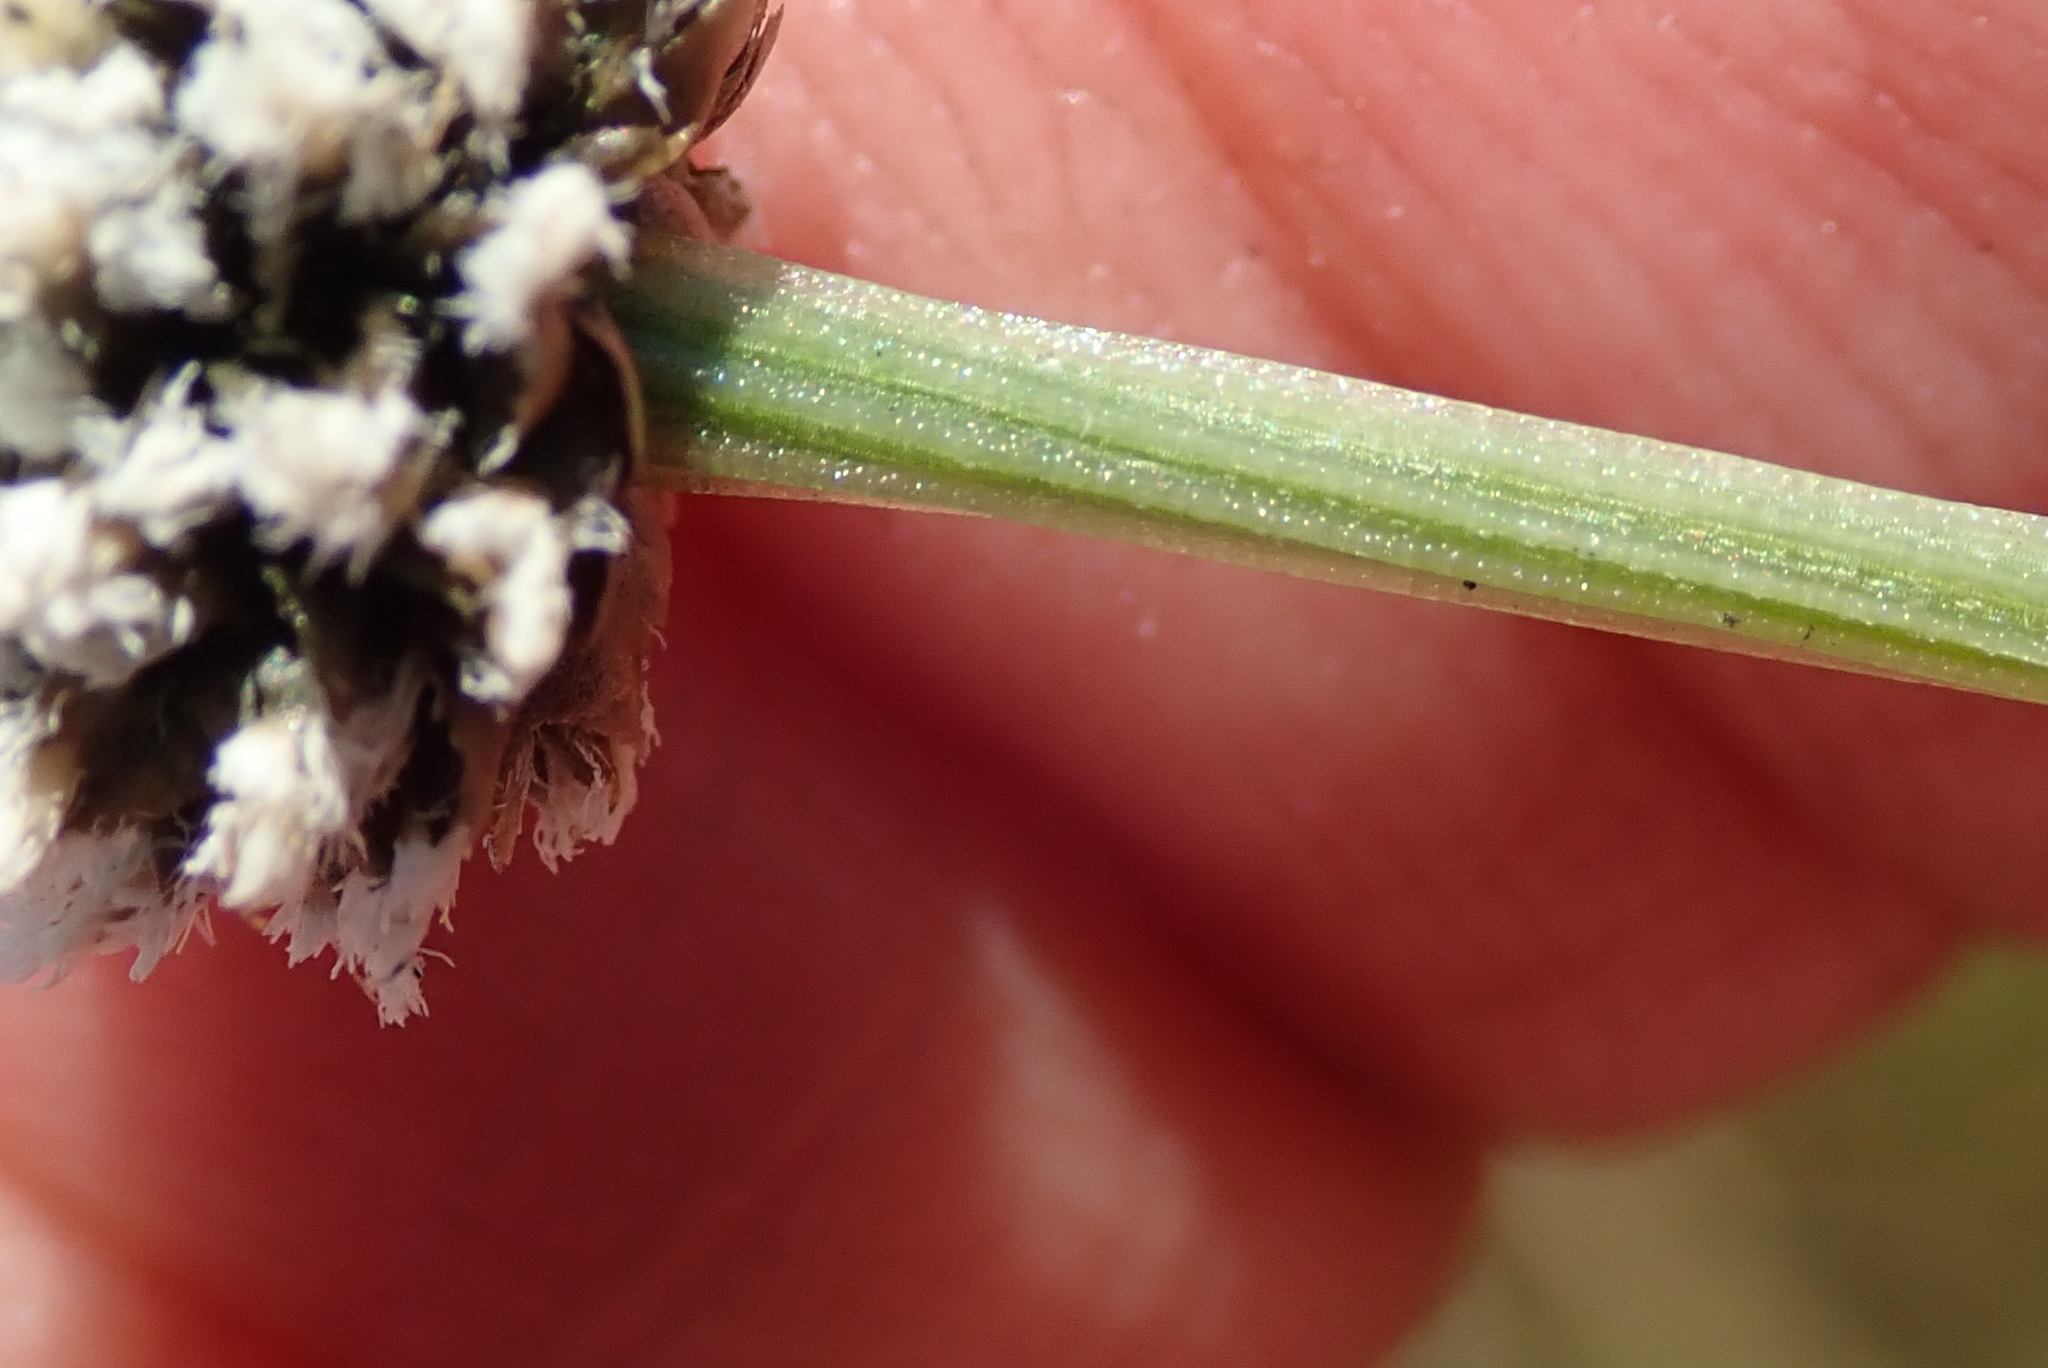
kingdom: Plantae
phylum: Tracheophyta
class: Liliopsida
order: Poales
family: Eriocaulaceae
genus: Eriocaulon
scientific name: Eriocaulon dregei
